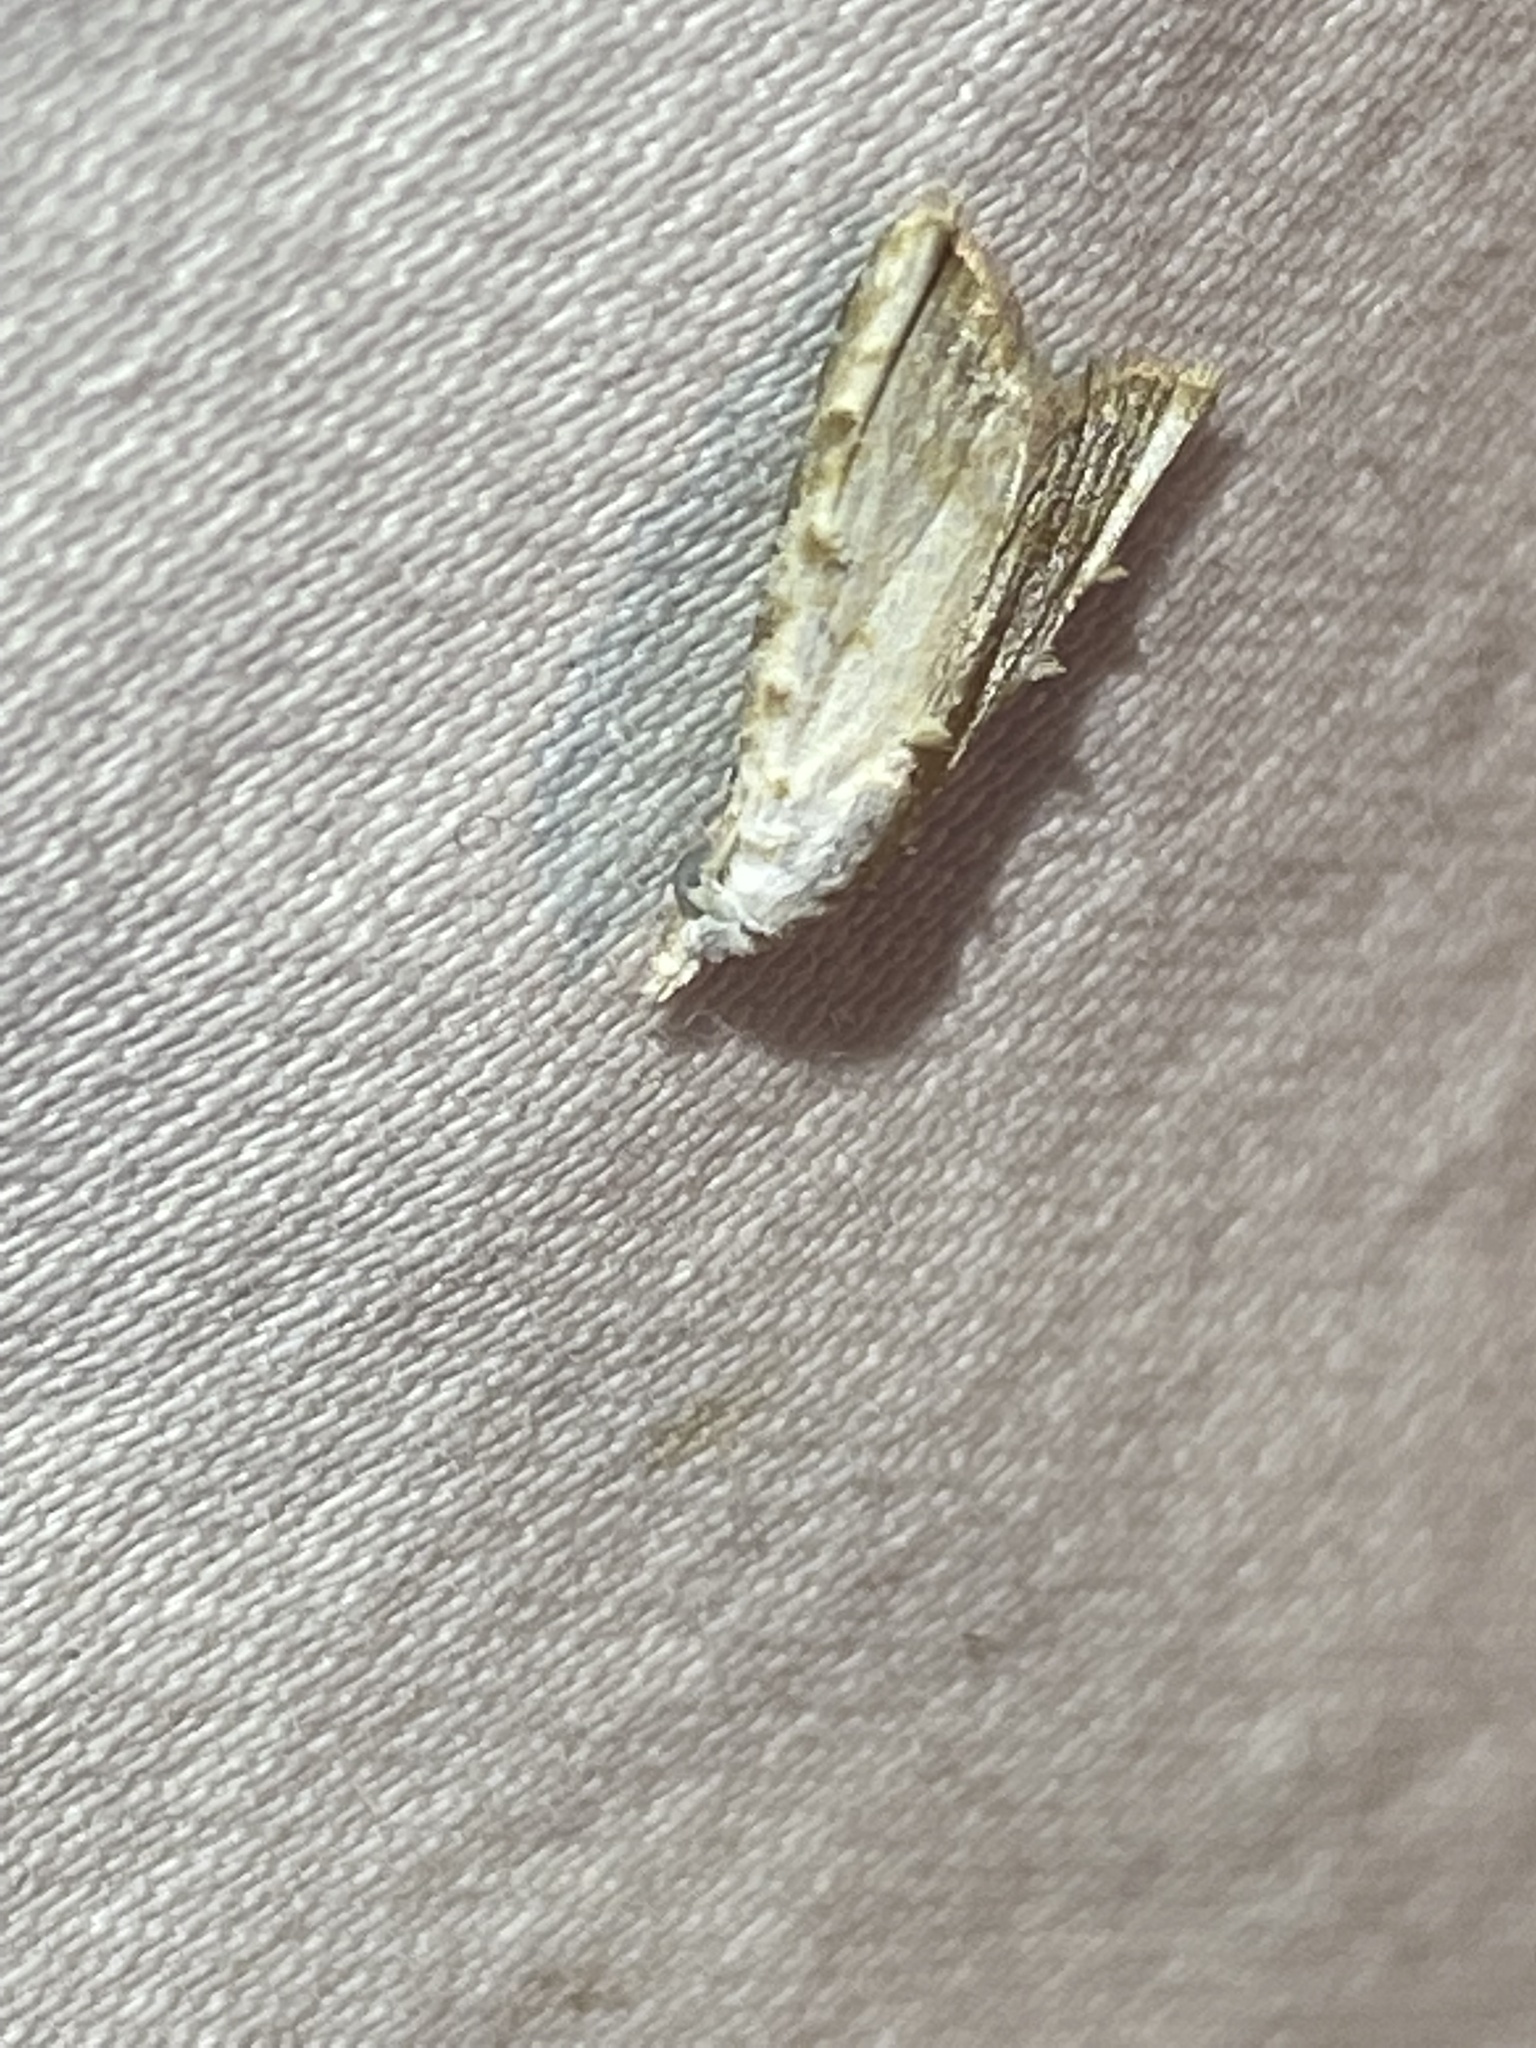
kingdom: Animalia
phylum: Arthropoda
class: Insecta
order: Lepidoptera
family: Nolidae
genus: Nola
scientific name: Nola cereella
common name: Sorghum webworm moth
